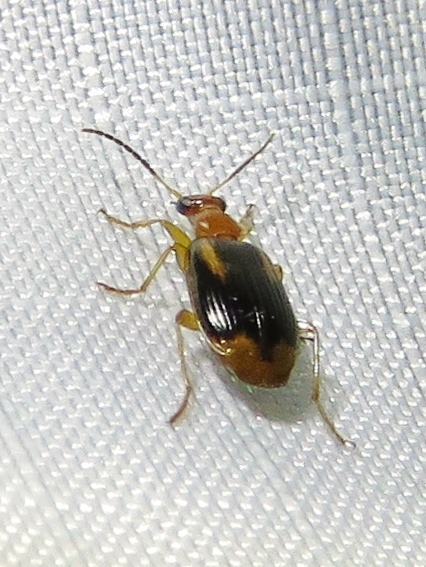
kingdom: Animalia
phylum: Arthropoda
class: Insecta
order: Coleoptera
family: Carabidae
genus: Lebia
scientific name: Lebia solea
